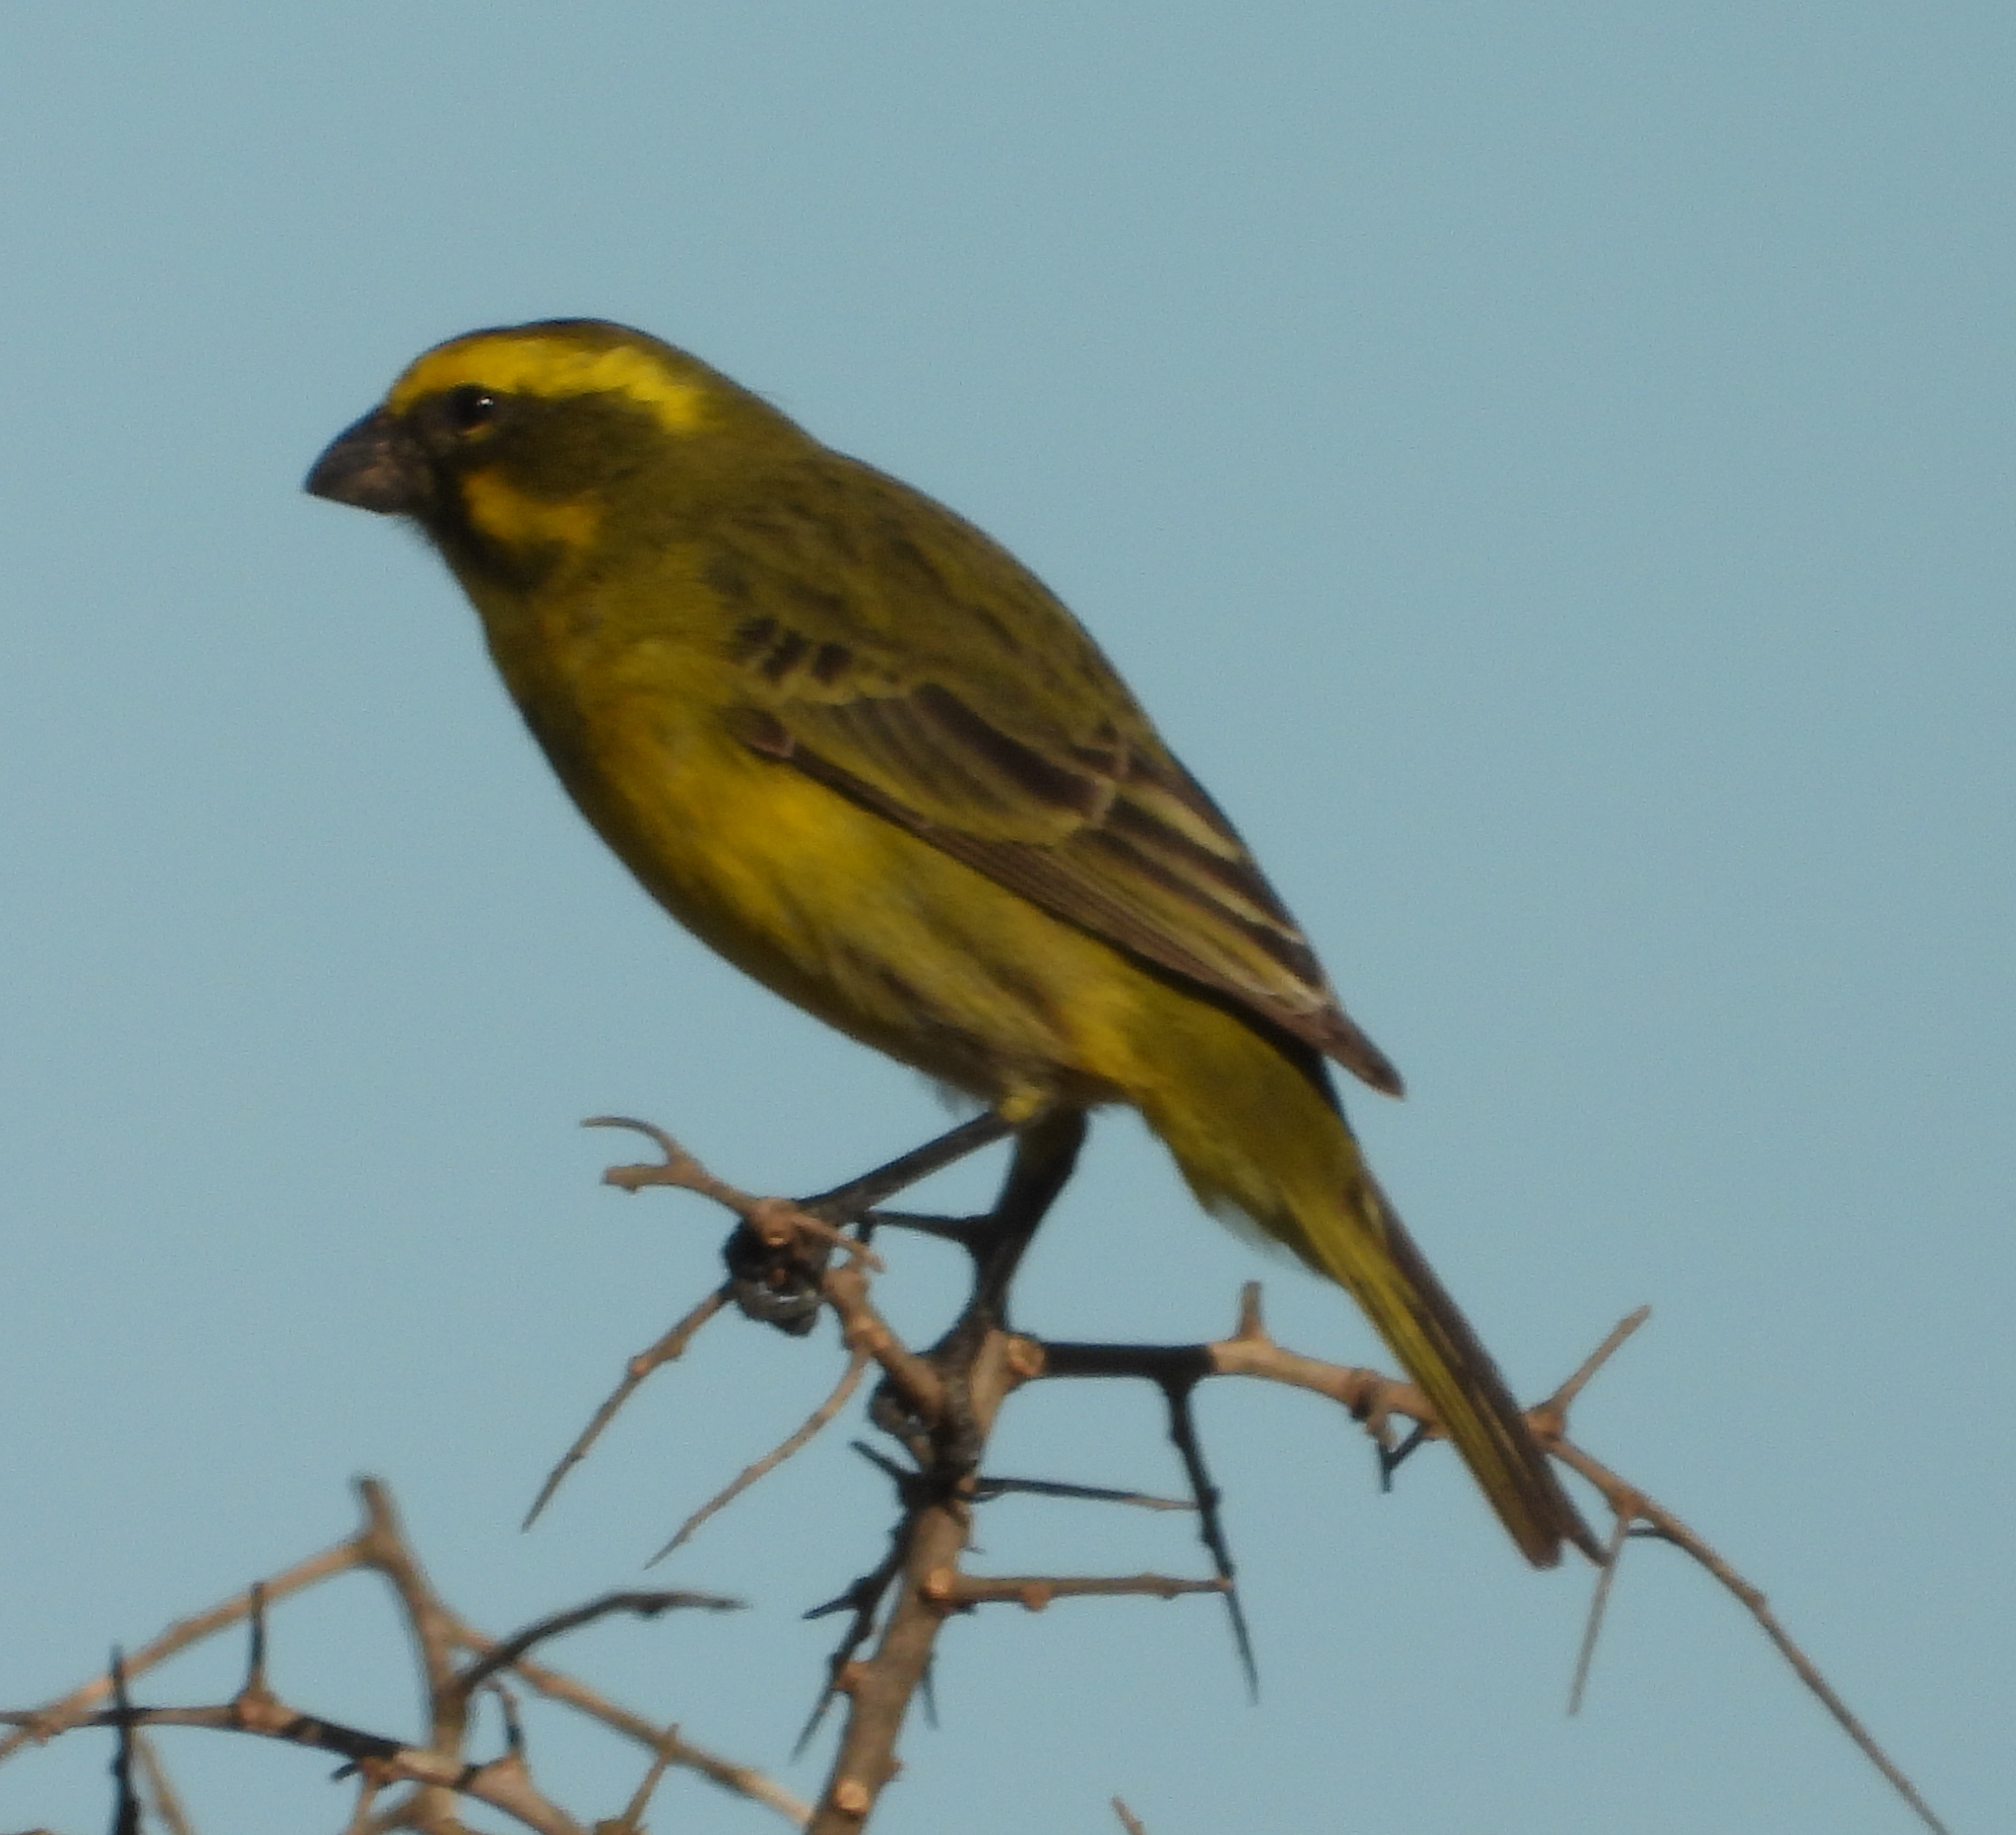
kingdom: Animalia
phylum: Chordata
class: Aves
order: Passeriformes
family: Fringillidae
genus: Crithagra
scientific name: Crithagra flaviventris
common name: Yellow canary
